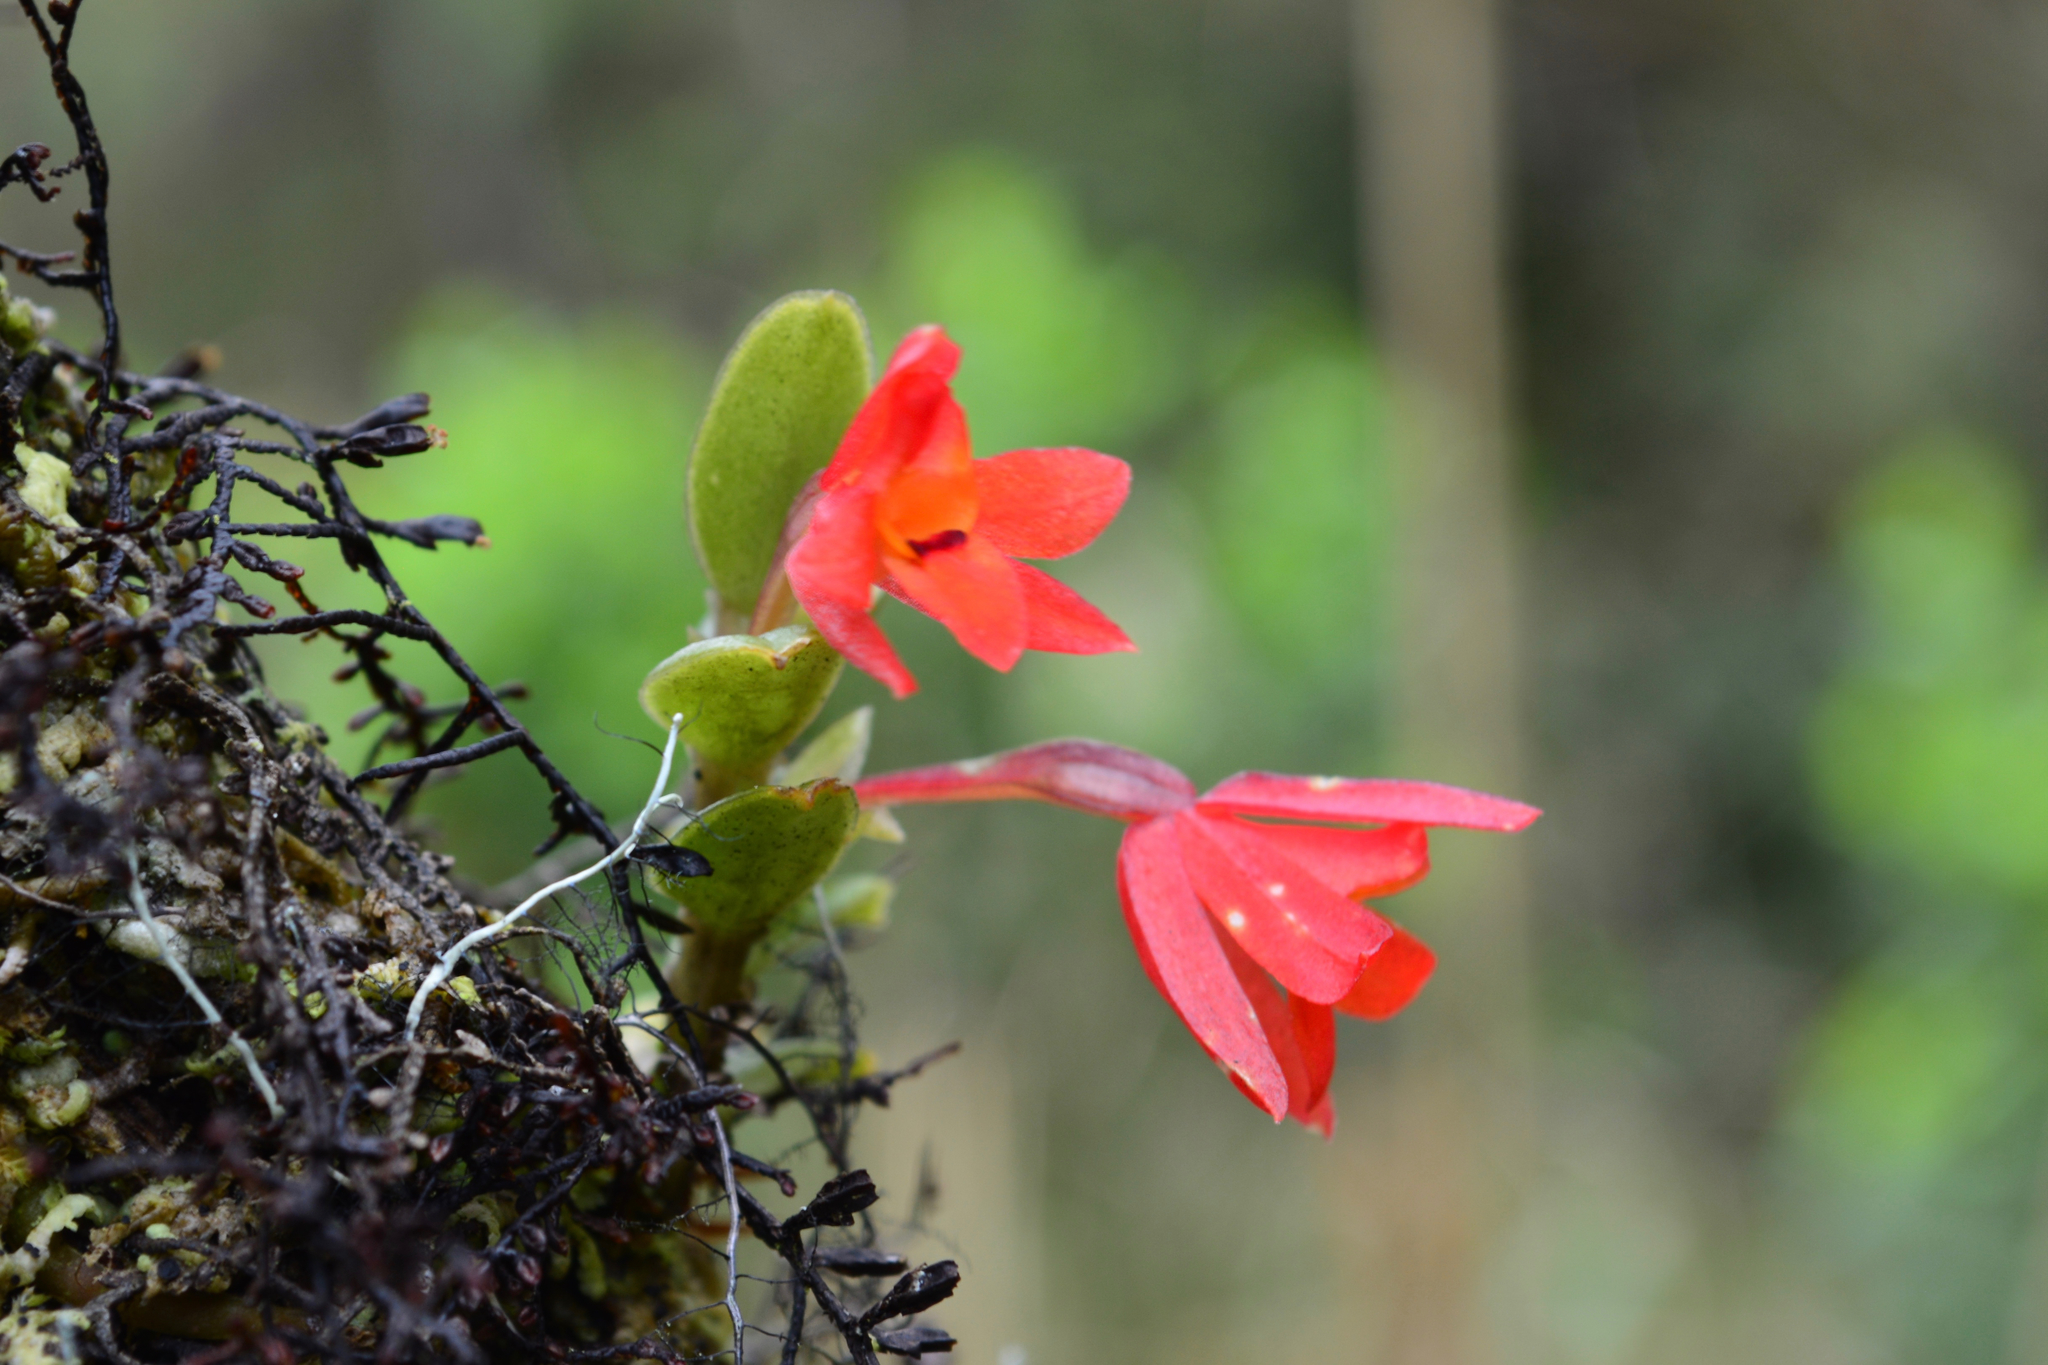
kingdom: Plantae
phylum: Tracheophyta
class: Liliopsida
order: Asparagales
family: Orchidaceae
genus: Fernandezia
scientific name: Fernandezia sanguinea
